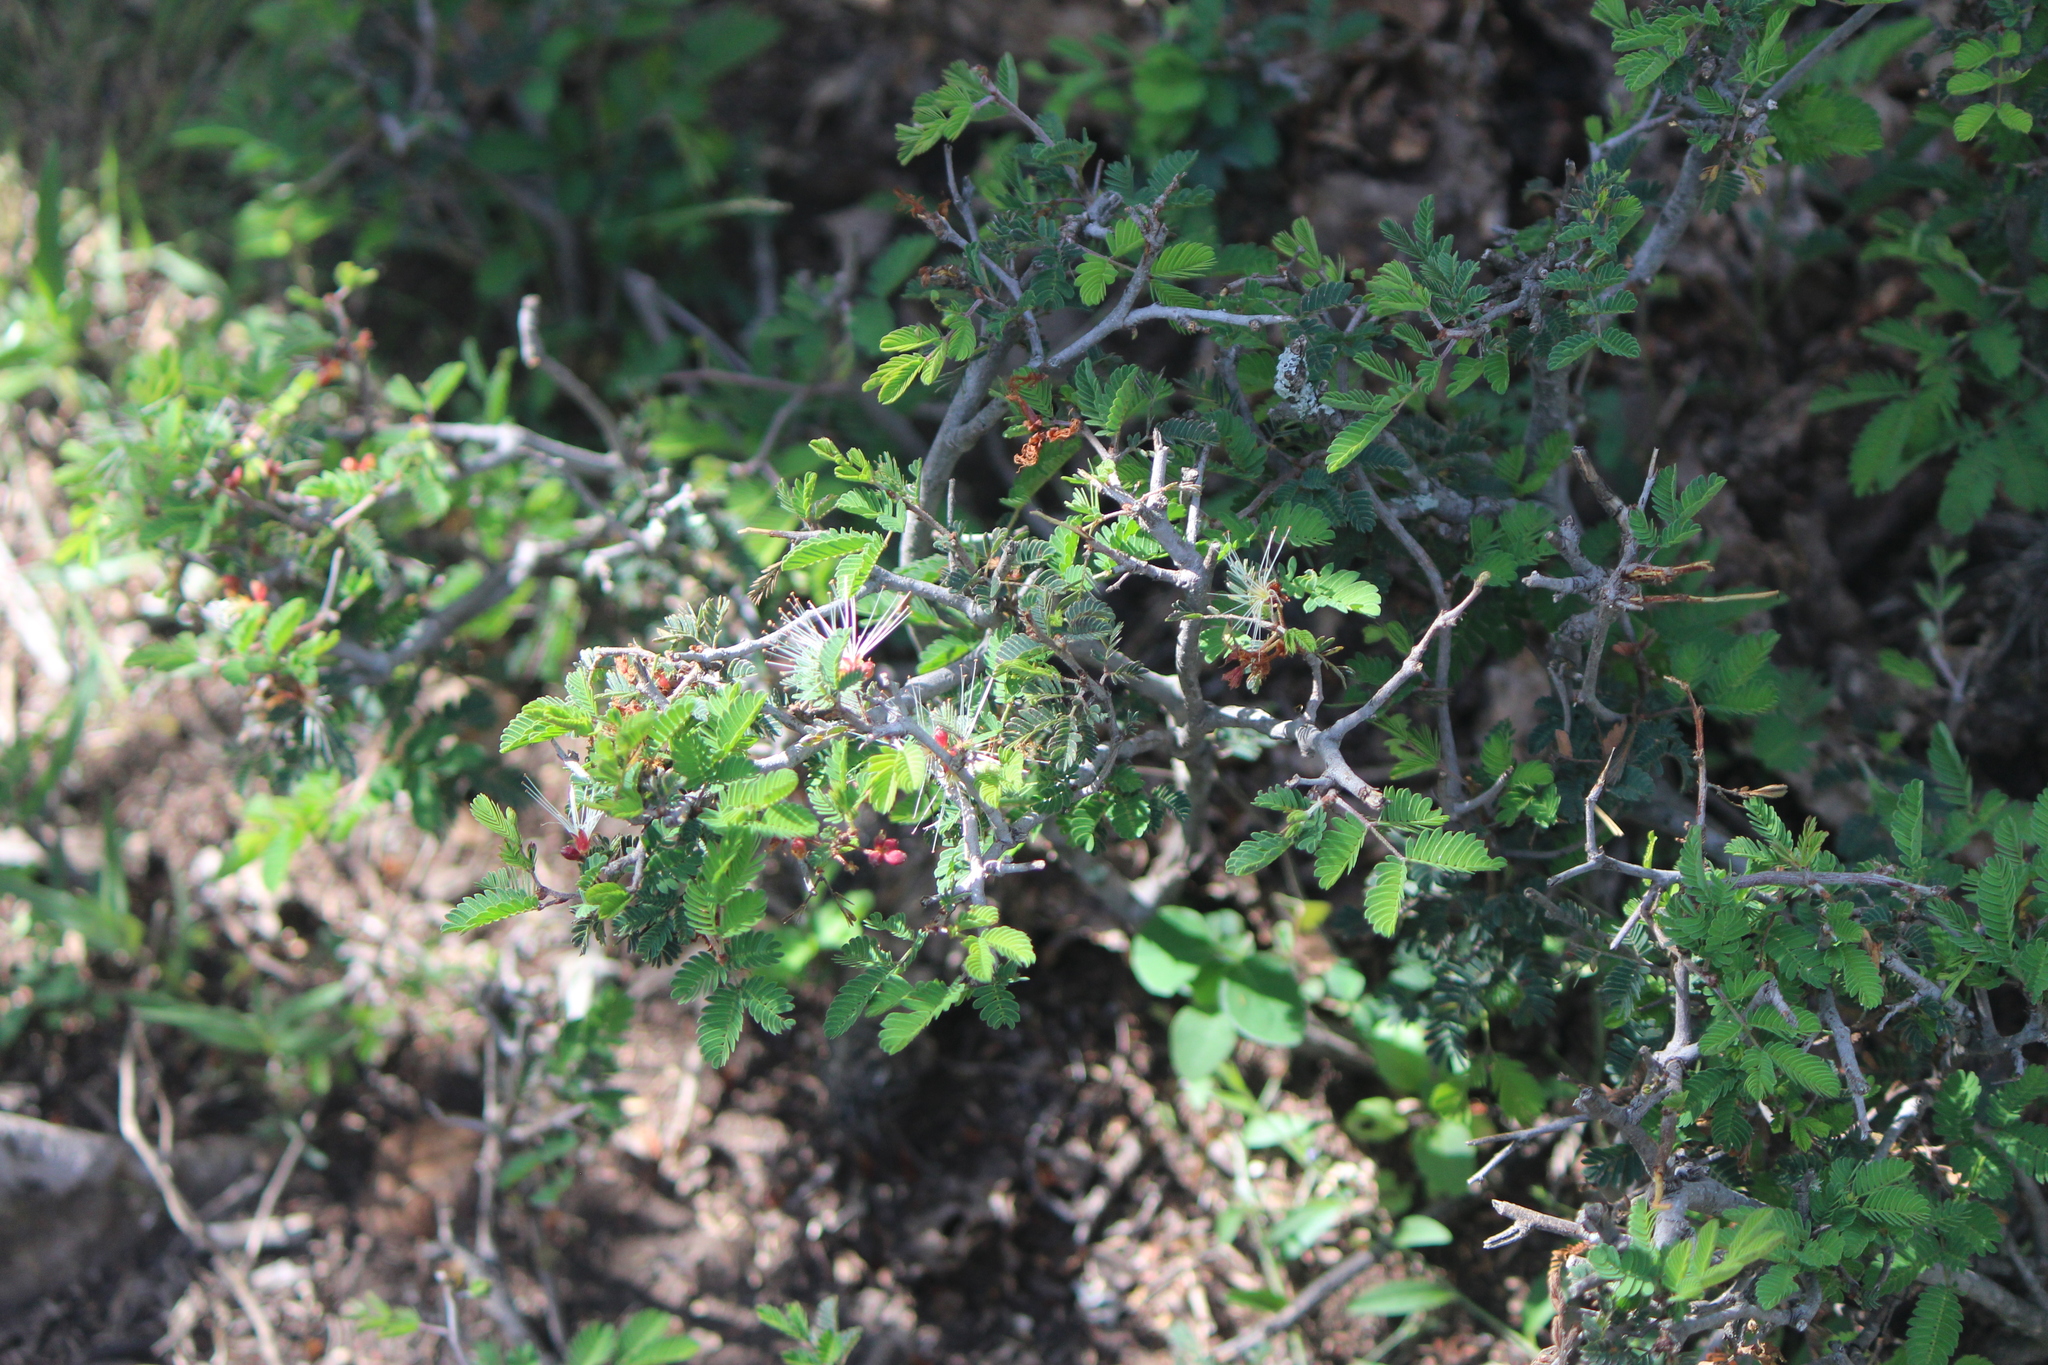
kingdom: Plantae
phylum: Tracheophyta
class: Magnoliopsida
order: Fabales
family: Fabaceae
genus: Calliandra
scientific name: Calliandra eriophylla
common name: Fairy-duster
